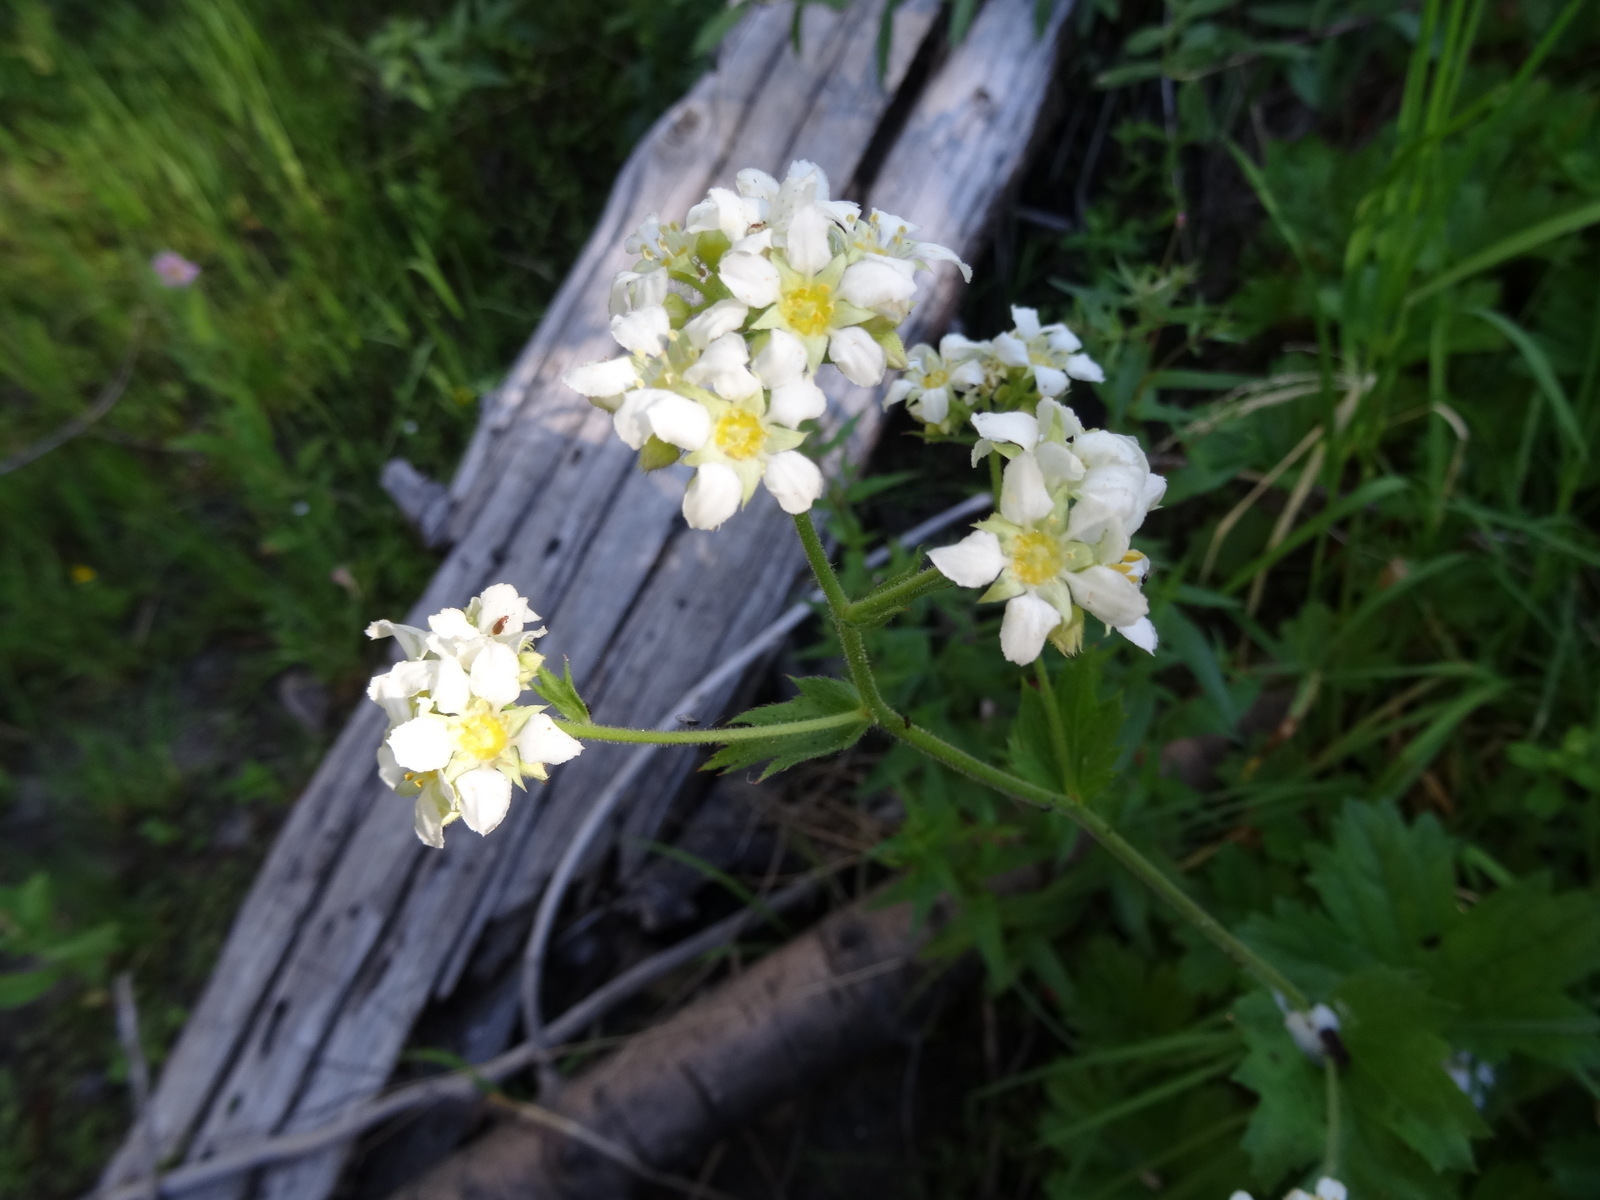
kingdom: Plantae
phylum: Tracheophyta
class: Magnoliopsida
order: Saxifragales
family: Saxifragaceae
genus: Boykinia
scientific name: Boykinia major
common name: Large boykinia
